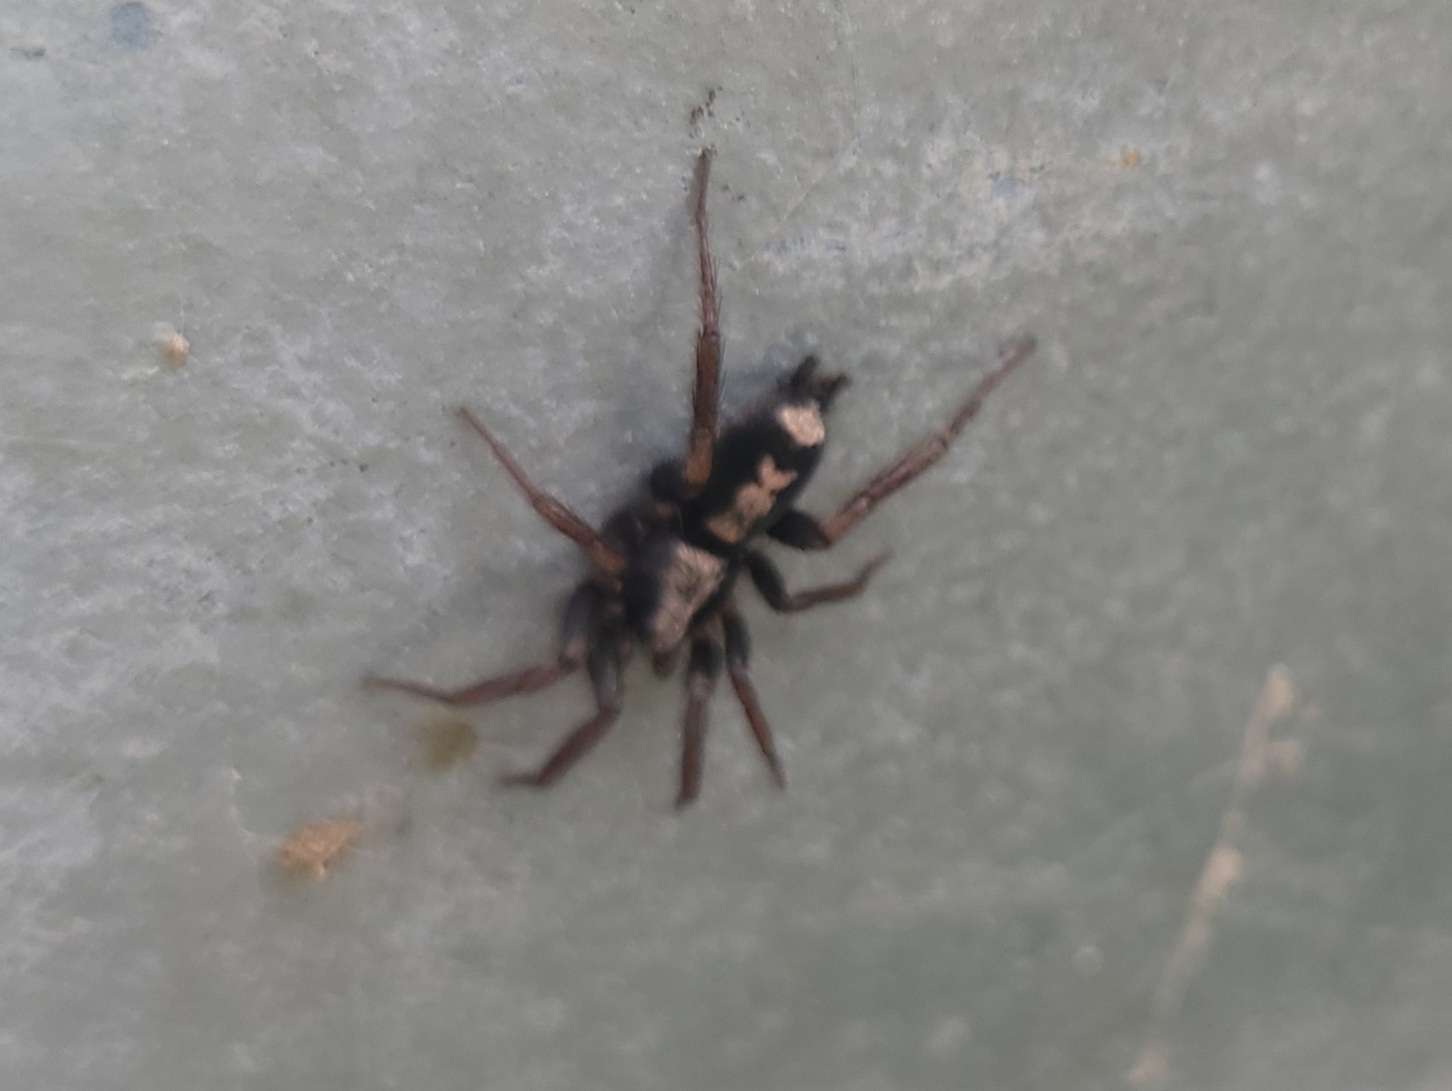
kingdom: Animalia
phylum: Arthropoda
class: Arachnida
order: Araneae
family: Gnaphosidae
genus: Herpyllus
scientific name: Herpyllus ecclesiasticus
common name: Eastern parson spider
